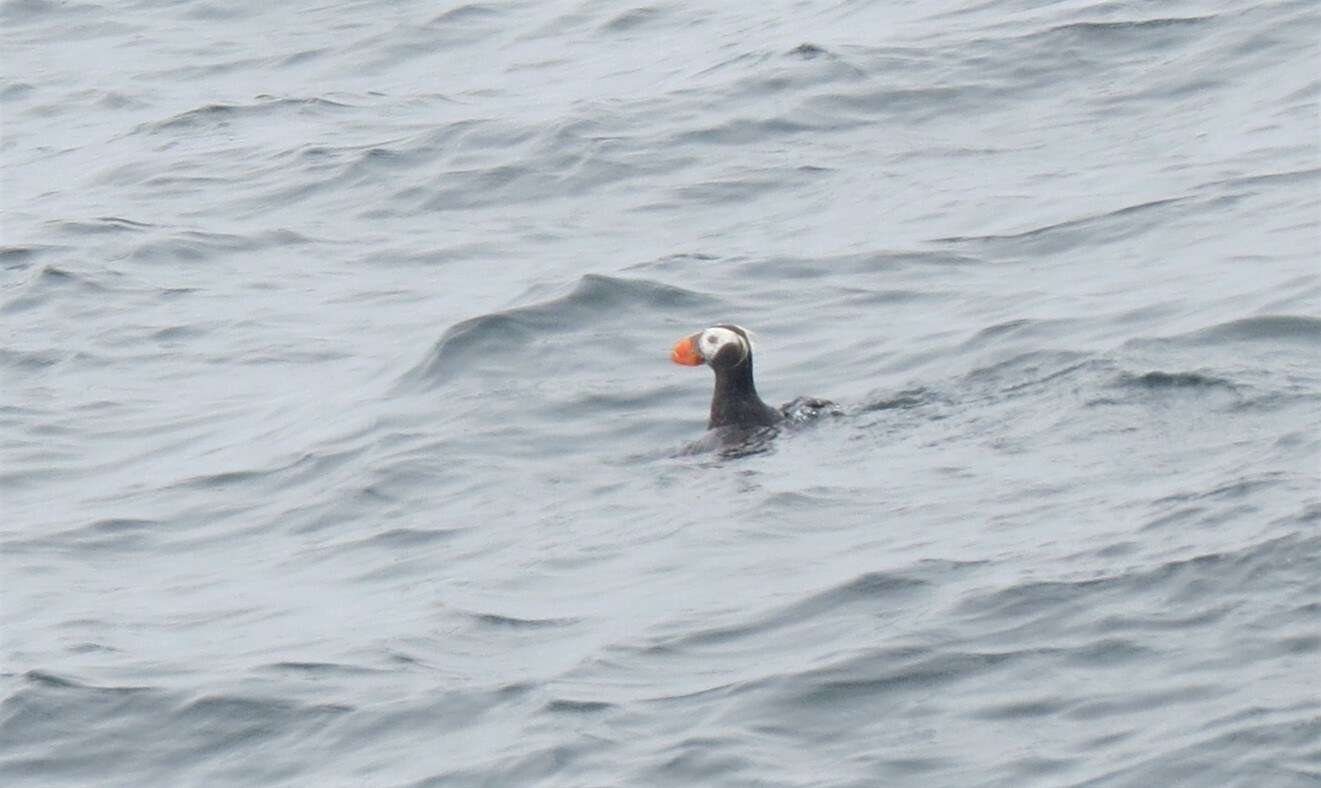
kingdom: Animalia
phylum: Chordata
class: Aves
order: Charadriiformes
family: Alcidae
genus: Fratercula
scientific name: Fratercula cirrhata
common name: Tufted puffin
